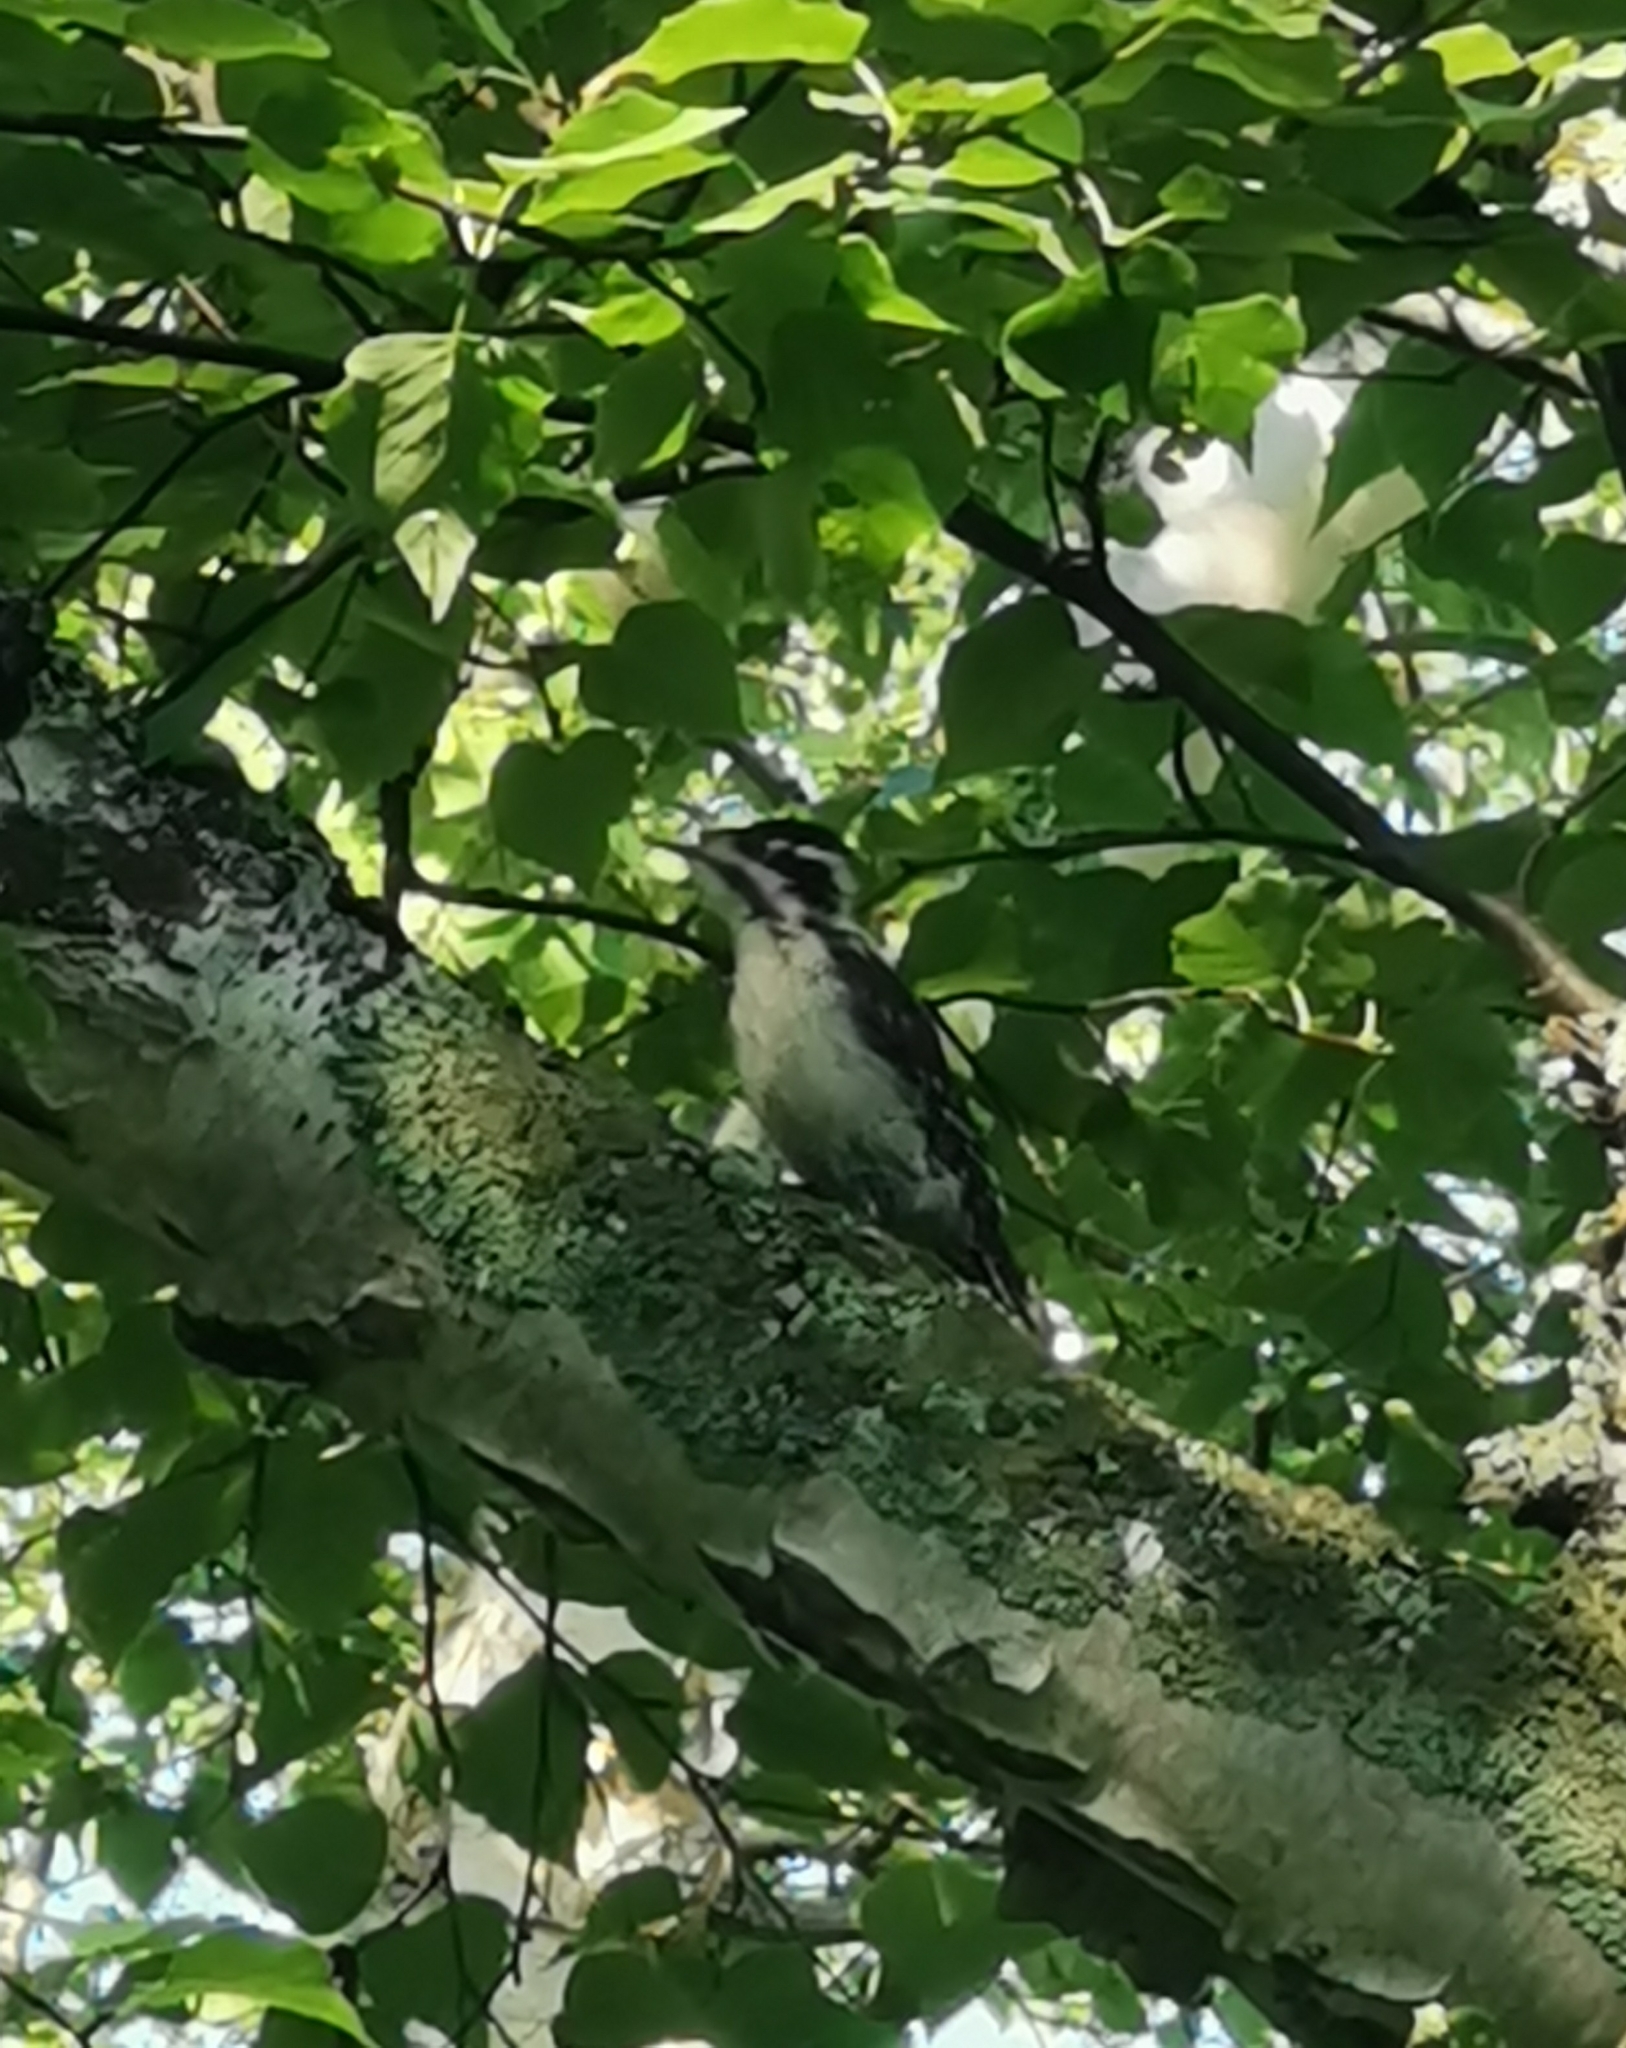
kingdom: Animalia
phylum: Chordata
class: Aves
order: Piciformes
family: Picidae
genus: Picoides
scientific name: Picoides tridactylus
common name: Eurasian three-toed woodpecker
